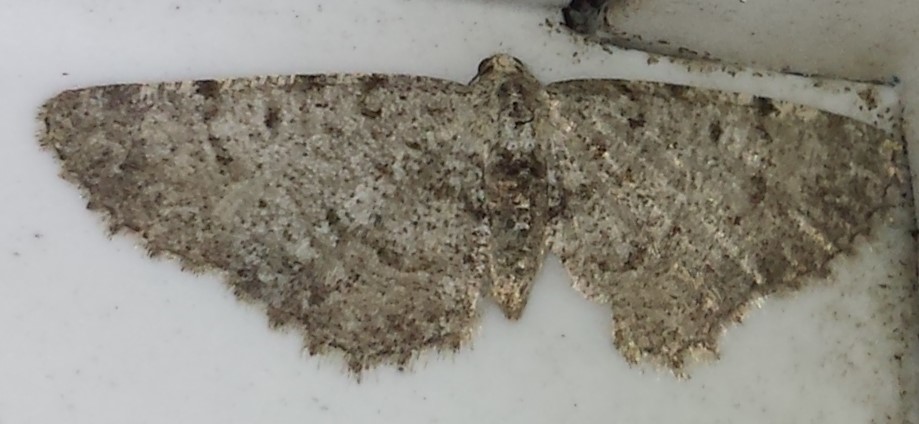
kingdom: Animalia
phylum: Arthropoda
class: Insecta
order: Lepidoptera
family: Geometridae
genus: Aethalura
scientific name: Aethalura intertexta
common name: Four-barred gray
